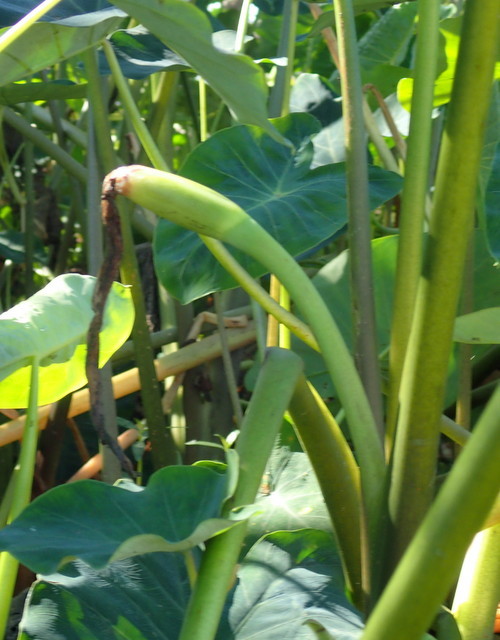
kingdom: Plantae
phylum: Tracheophyta
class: Liliopsida
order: Alismatales
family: Araceae
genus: Colocasia
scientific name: Colocasia esculenta
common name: Taro
